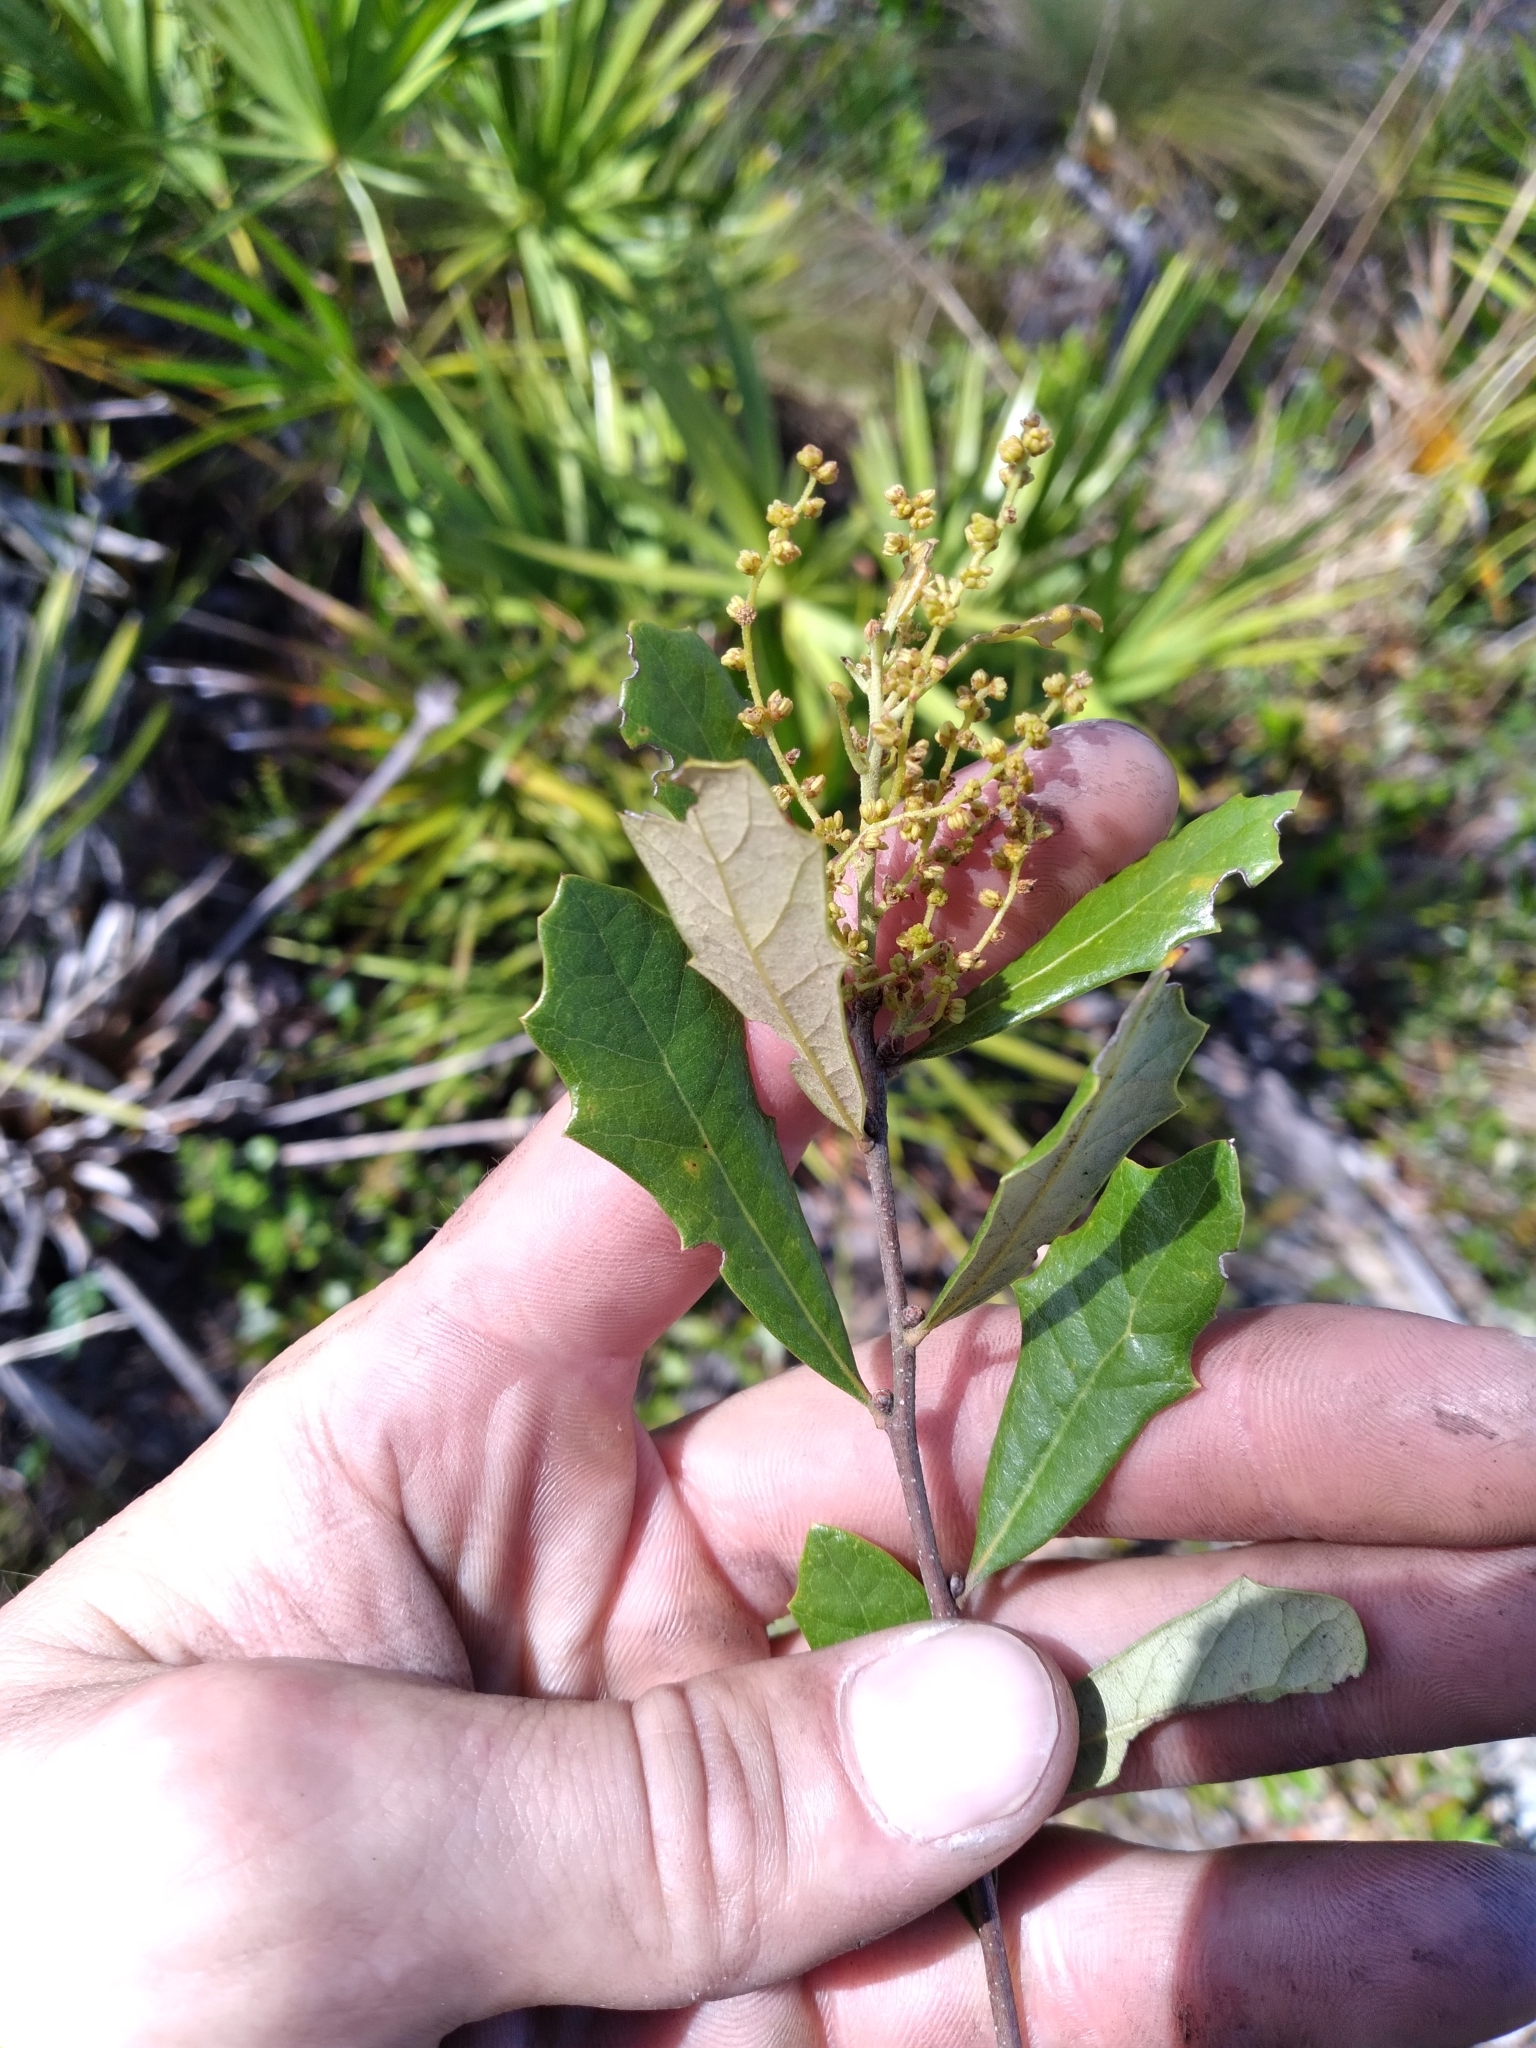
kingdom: Plantae
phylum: Tracheophyta
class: Magnoliopsida
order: Fagales
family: Fagaceae
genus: Quercus
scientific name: Quercus minima
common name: Dwarf live oak
